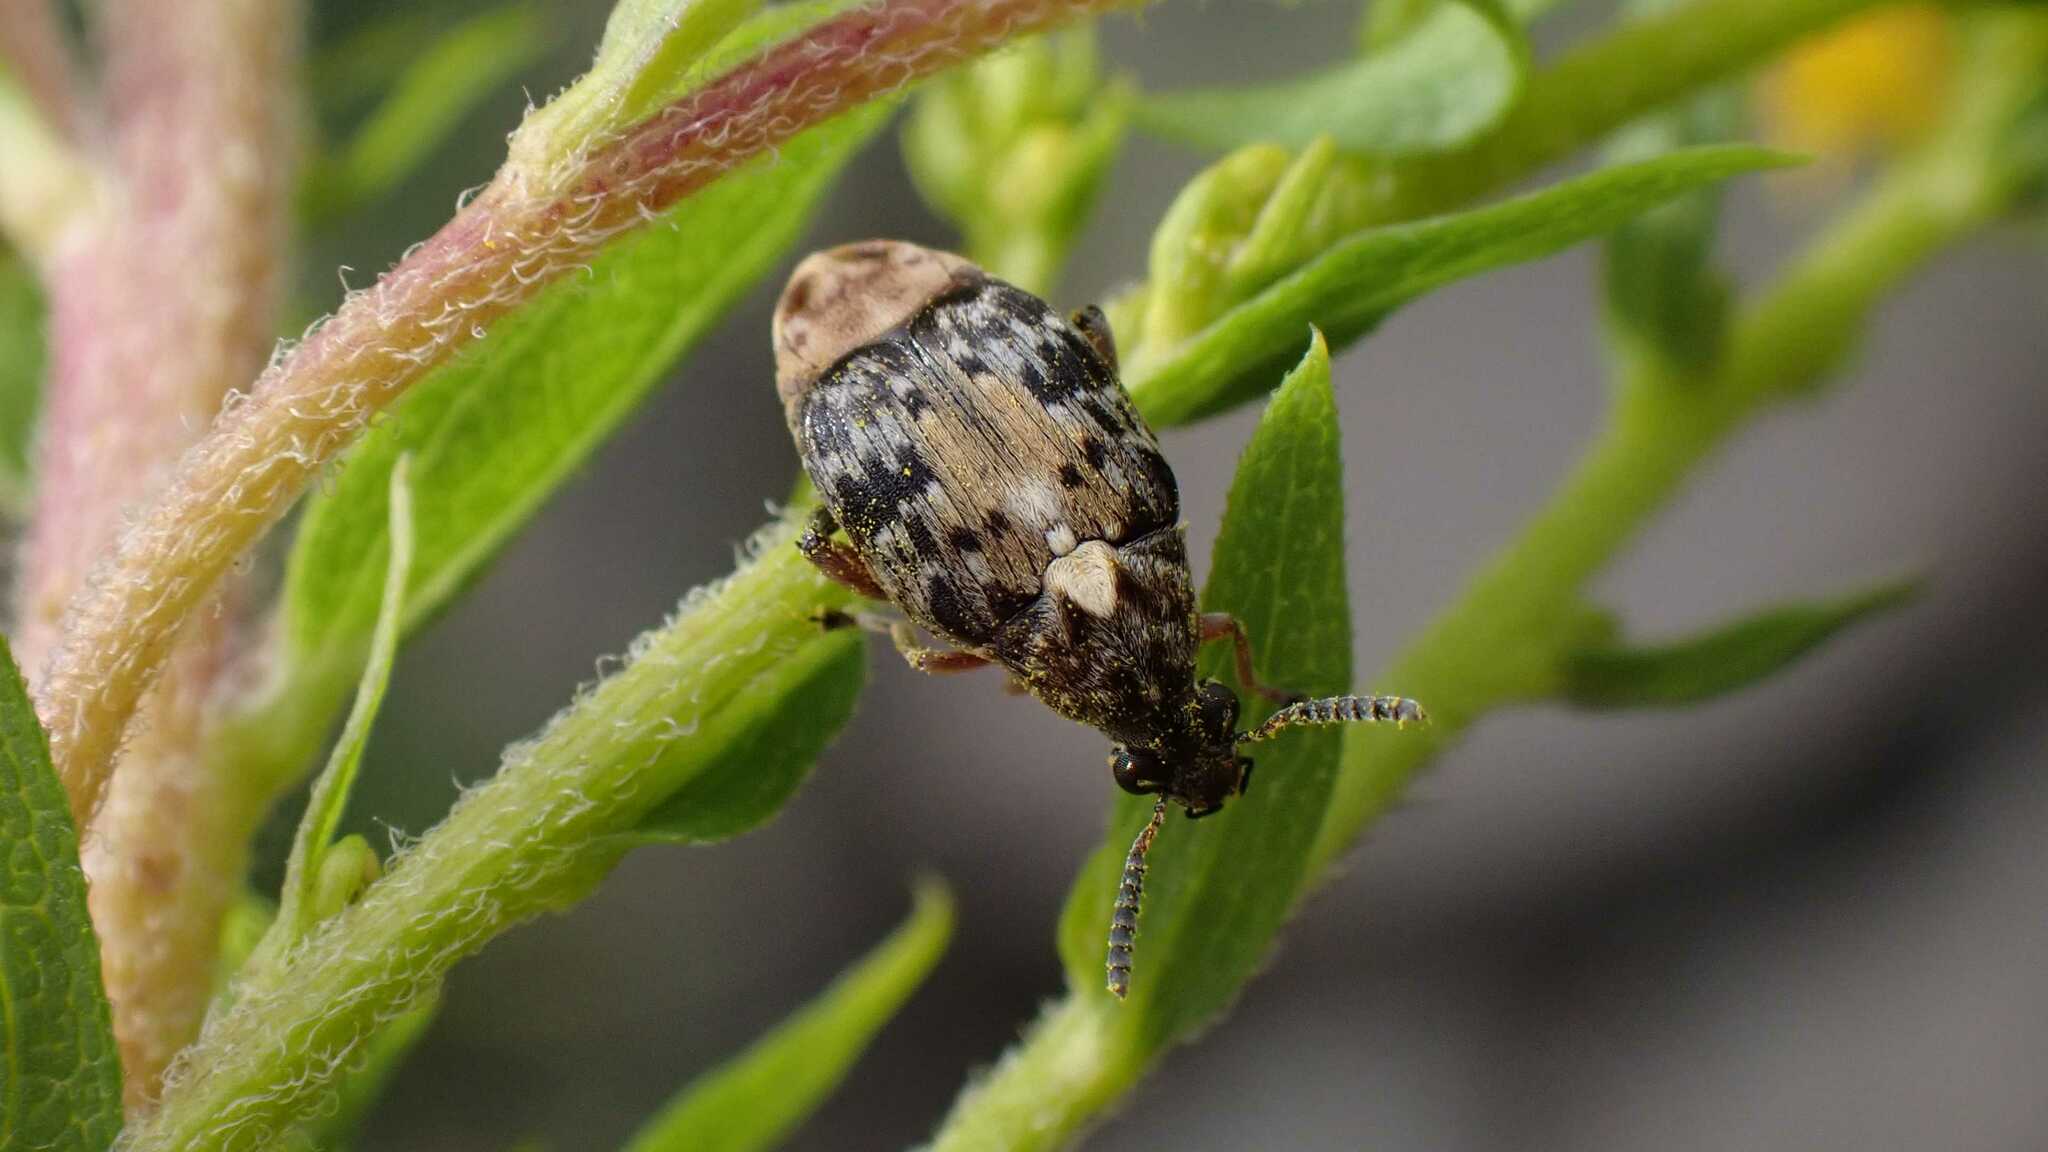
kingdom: Animalia
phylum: Arthropoda
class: Insecta
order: Coleoptera
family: Chrysomelidae
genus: Megabruchidius
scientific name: Megabruchidius dorsalis
